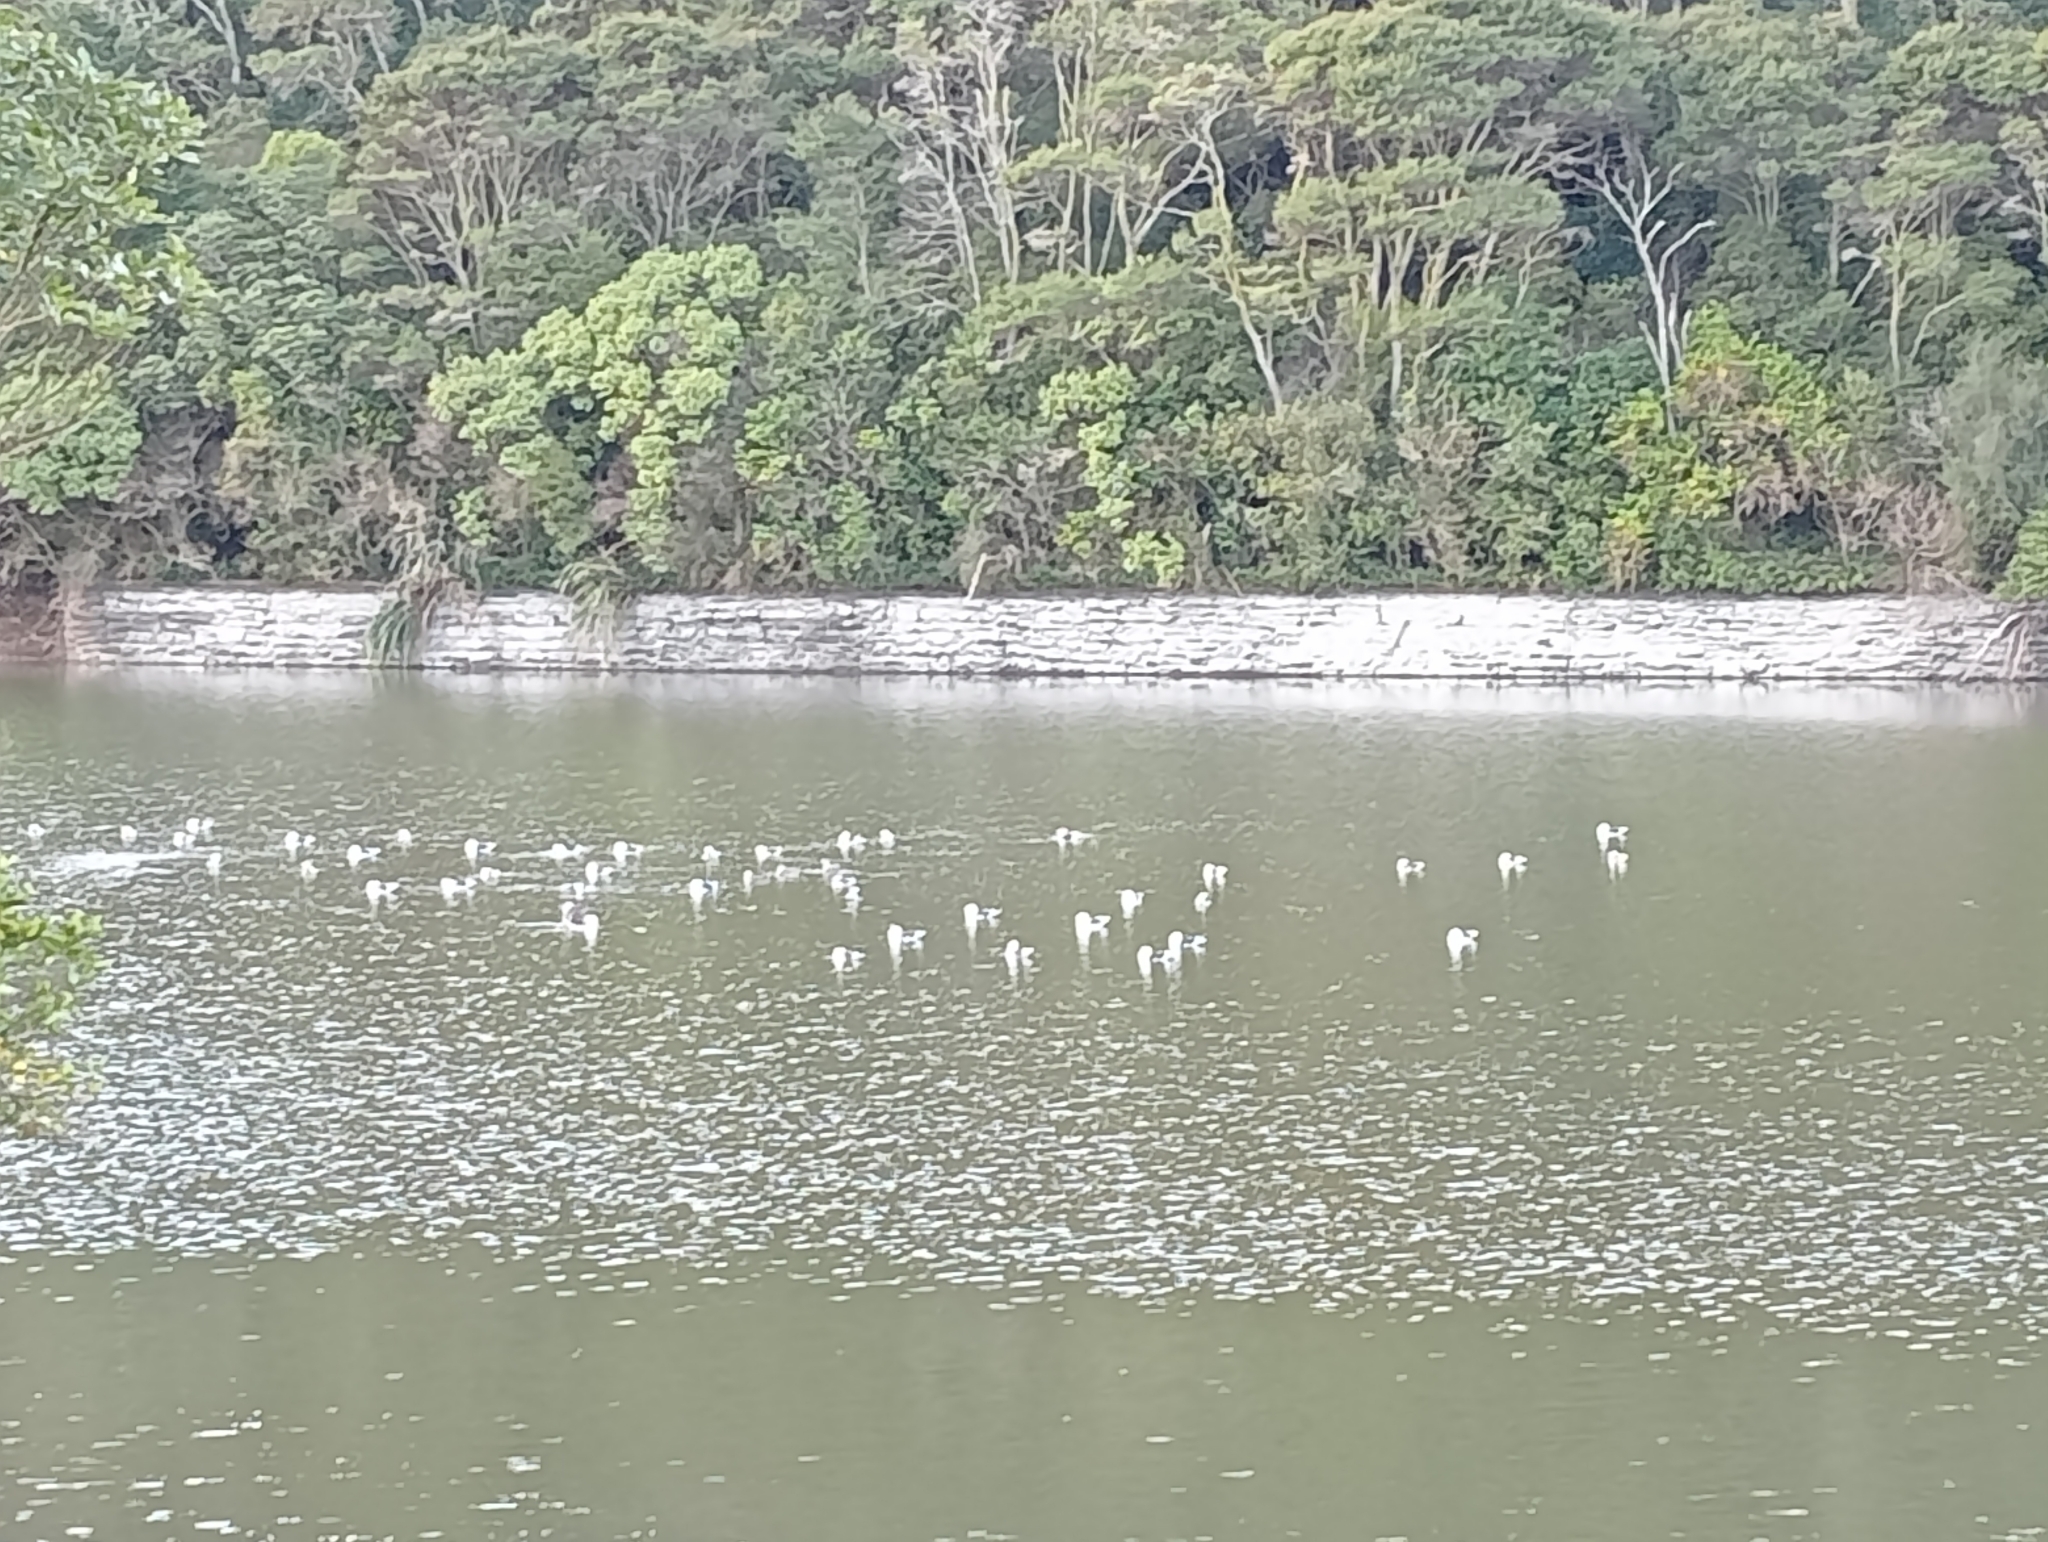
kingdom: Animalia
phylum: Chordata
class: Aves
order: Charadriiformes
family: Laridae
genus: Larus
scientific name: Larus dominicanus
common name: Kelp gull
